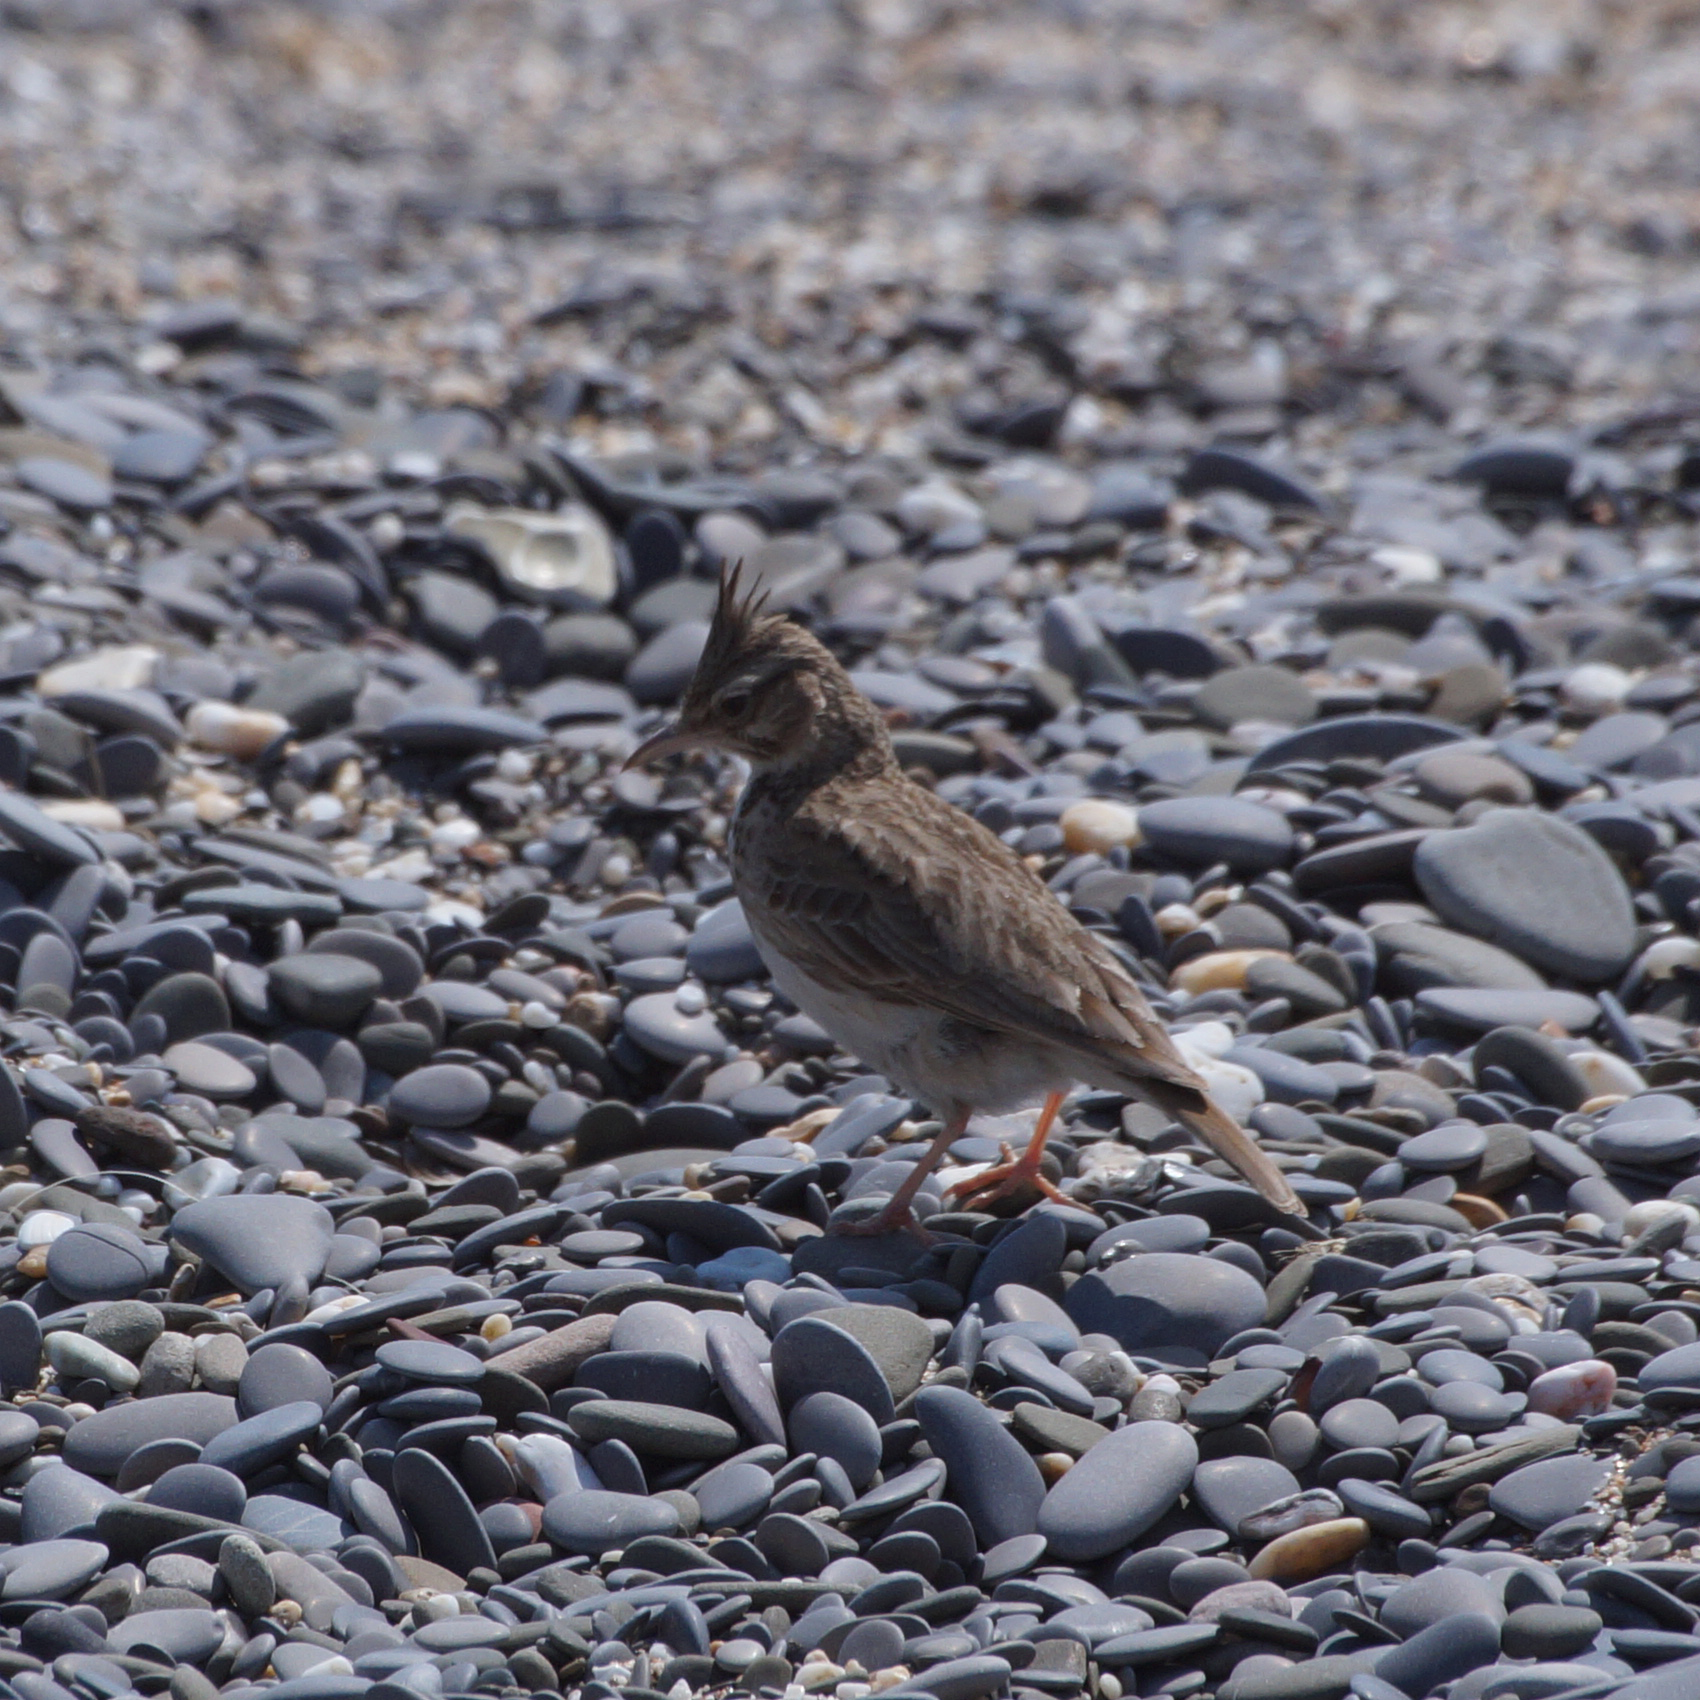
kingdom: Animalia
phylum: Chordata
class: Aves
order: Passeriformes
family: Alaudidae
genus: Galerida
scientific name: Galerida cristata
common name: Crested lark
